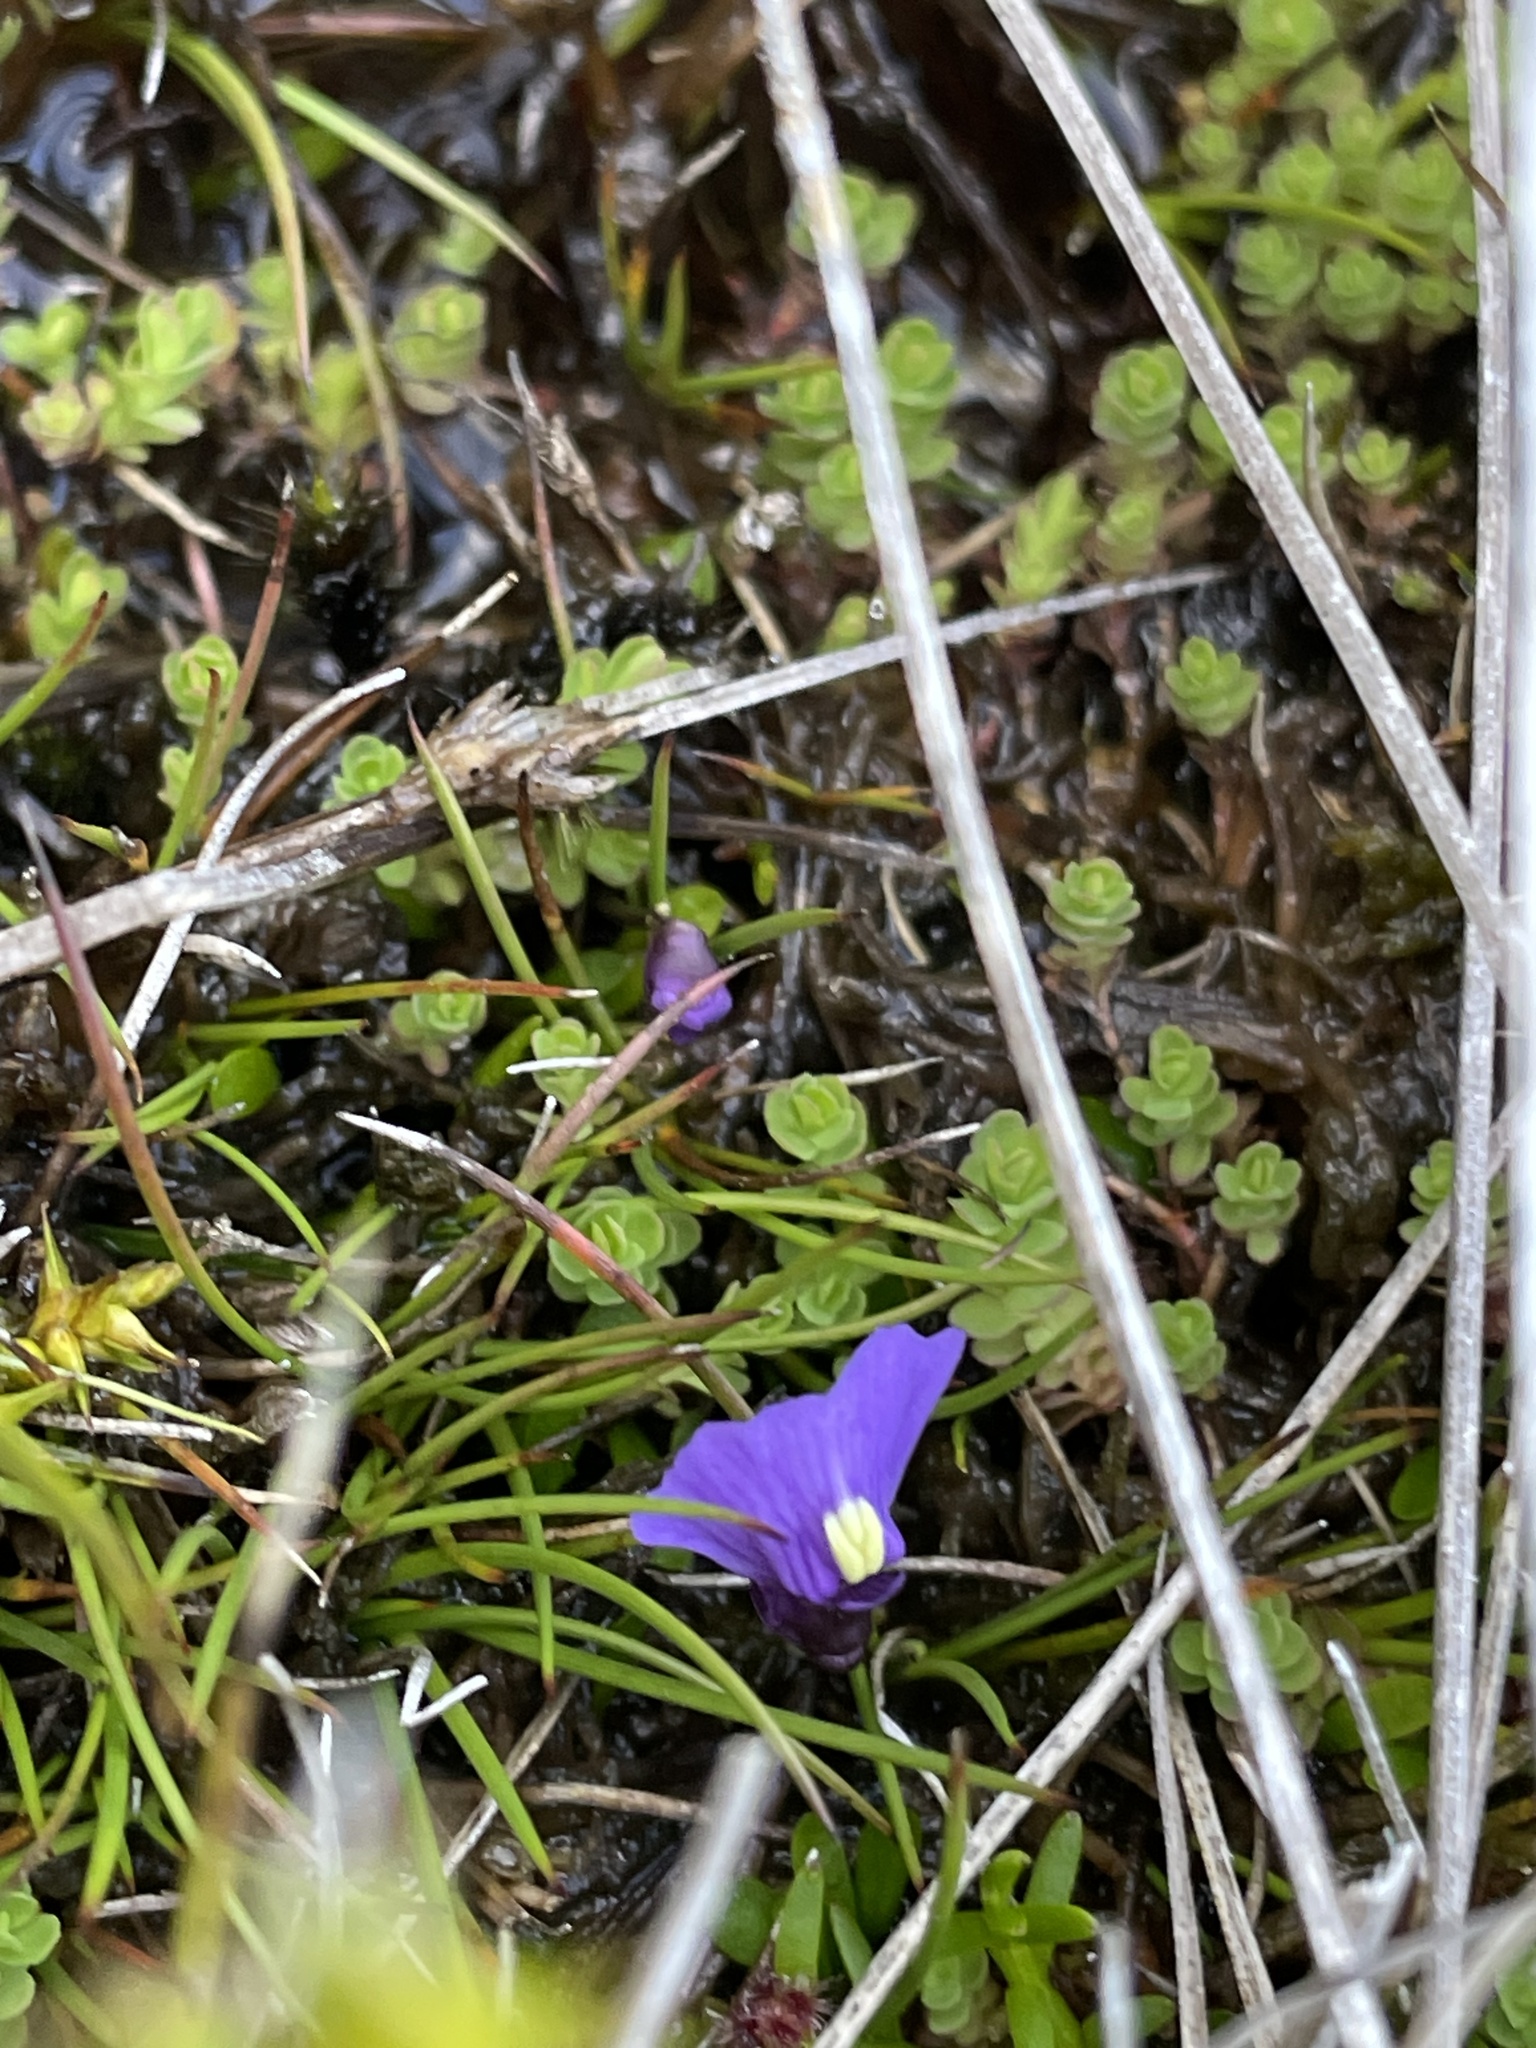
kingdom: Plantae
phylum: Tracheophyta
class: Magnoliopsida
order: Lamiales
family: Lentibulariaceae
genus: Utricularia
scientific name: Utricularia dichotoma
